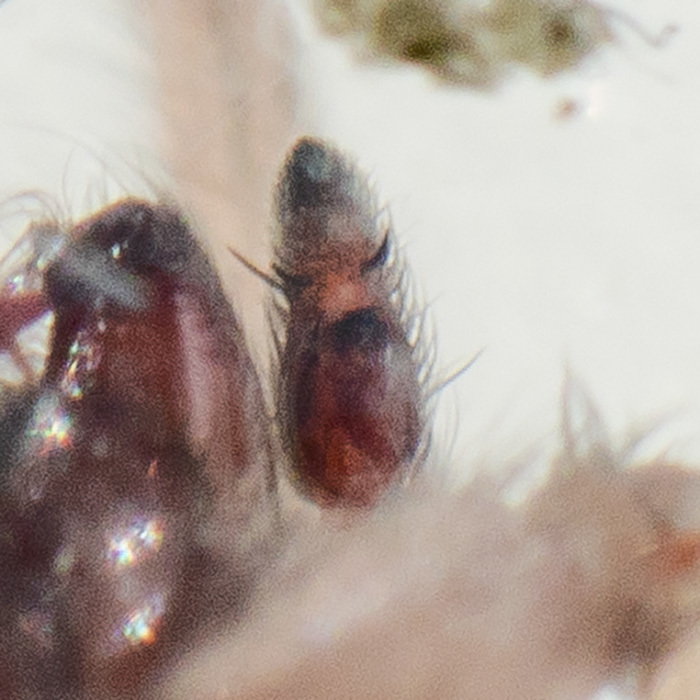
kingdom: Animalia
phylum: Arthropoda
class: Arachnida
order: Araneae
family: Gnaphosidae
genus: Drassodes
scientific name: Drassodes lapidosus
